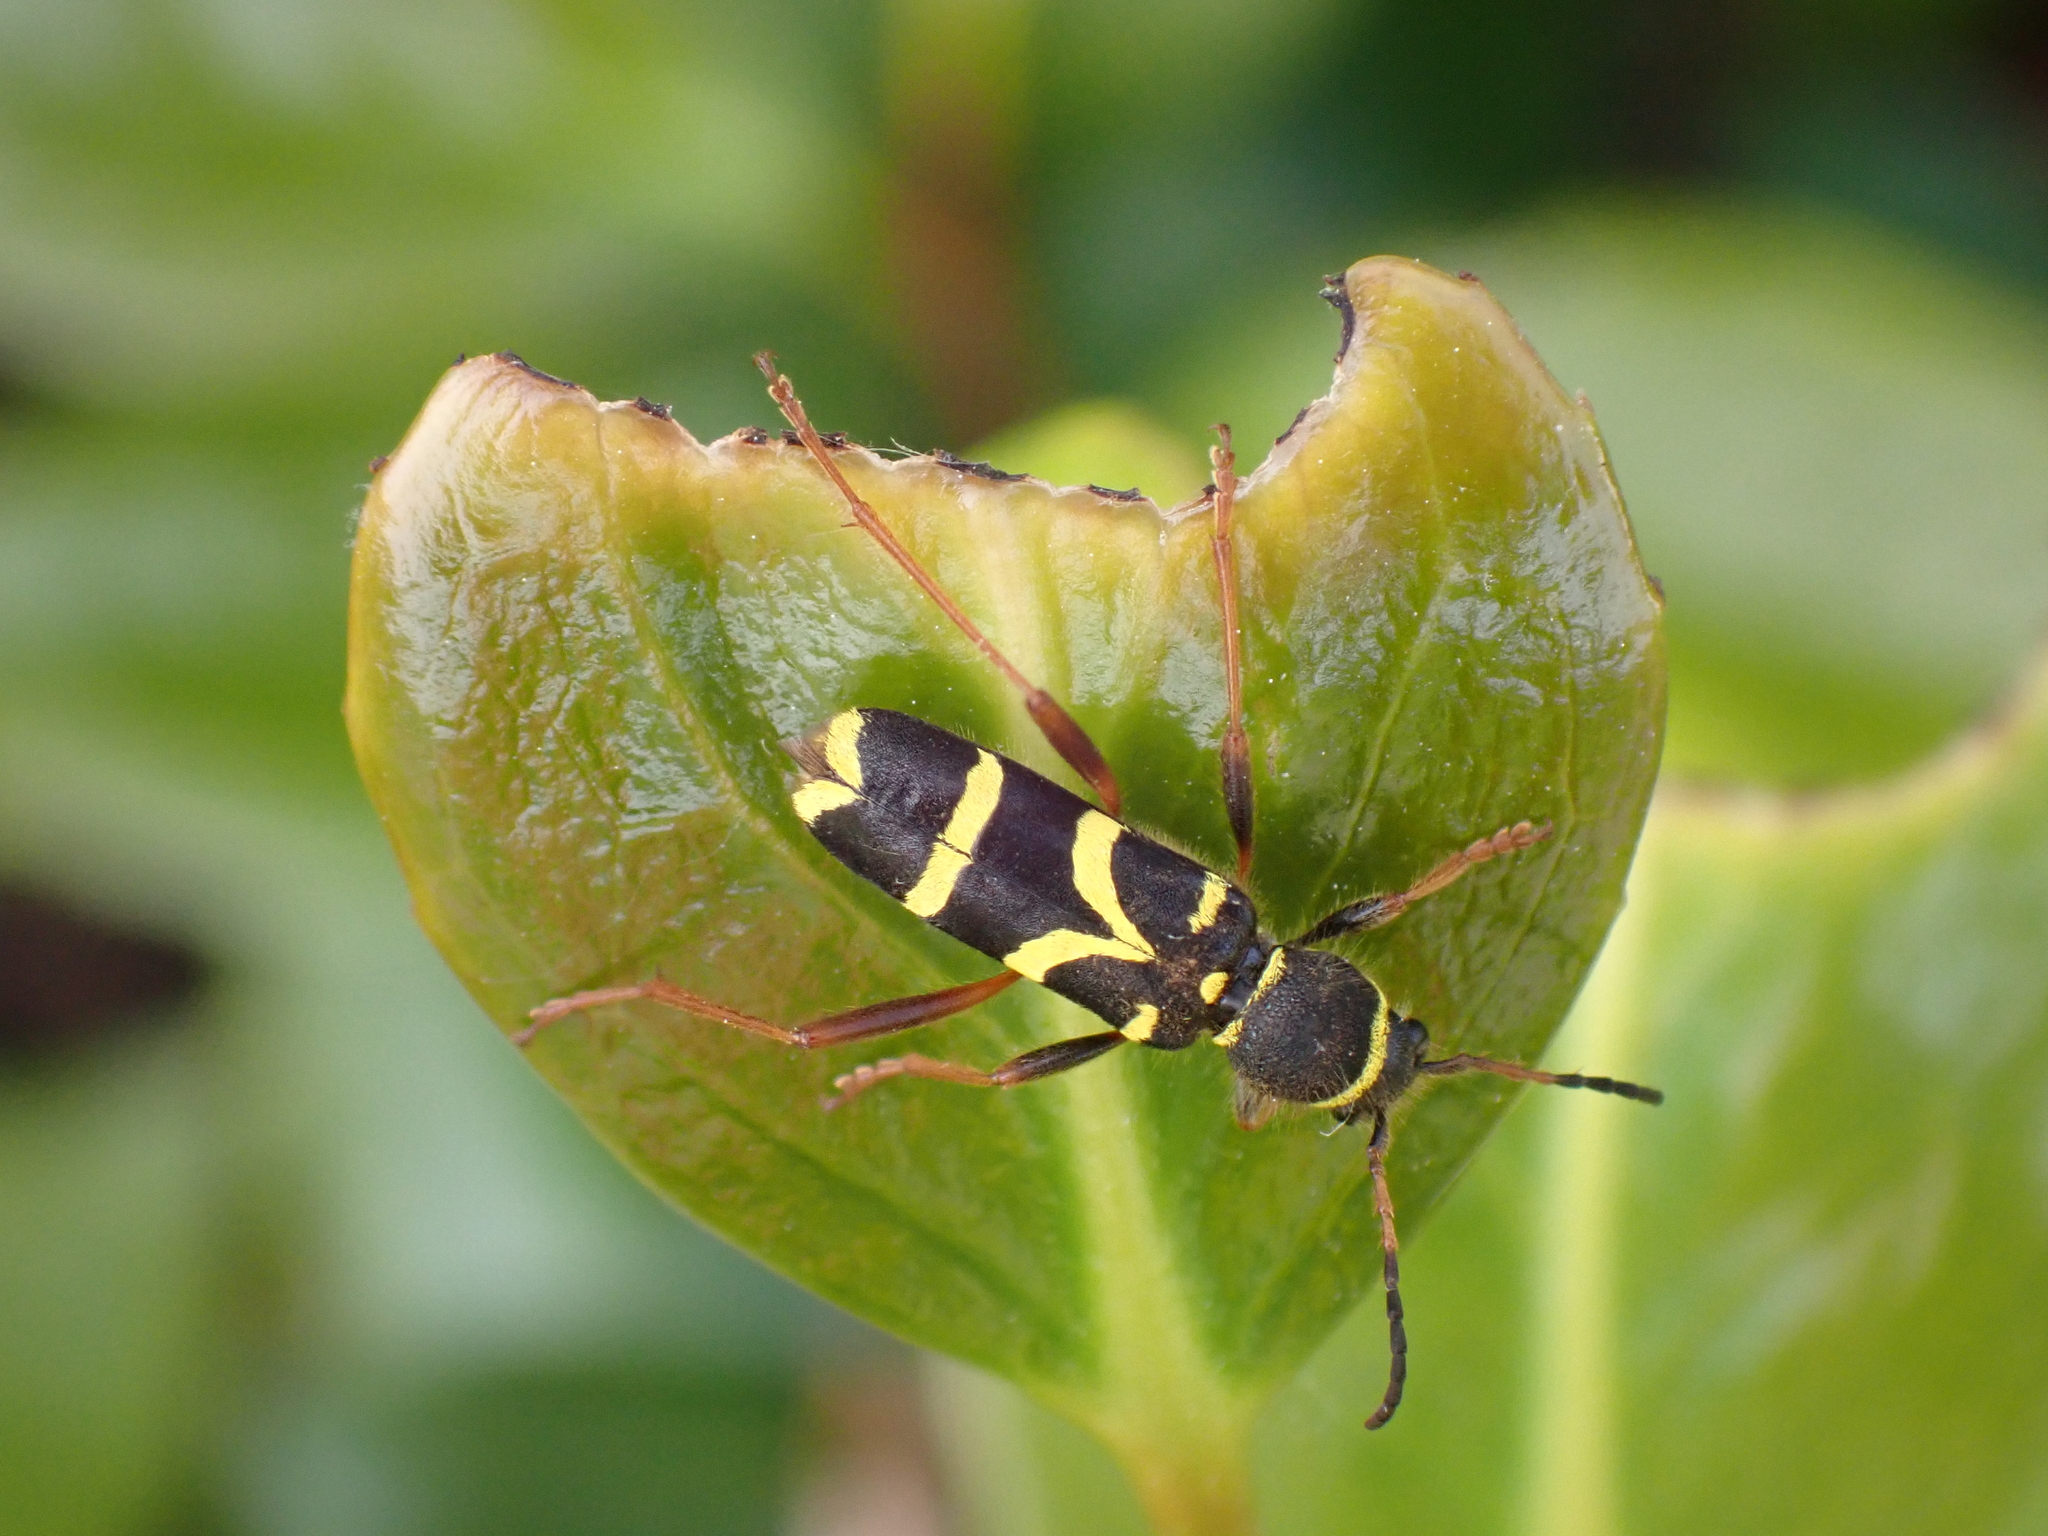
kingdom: Animalia
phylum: Arthropoda
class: Insecta
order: Coleoptera
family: Cerambycidae
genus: Clytus
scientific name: Clytus arietis
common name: Wasp beetle
